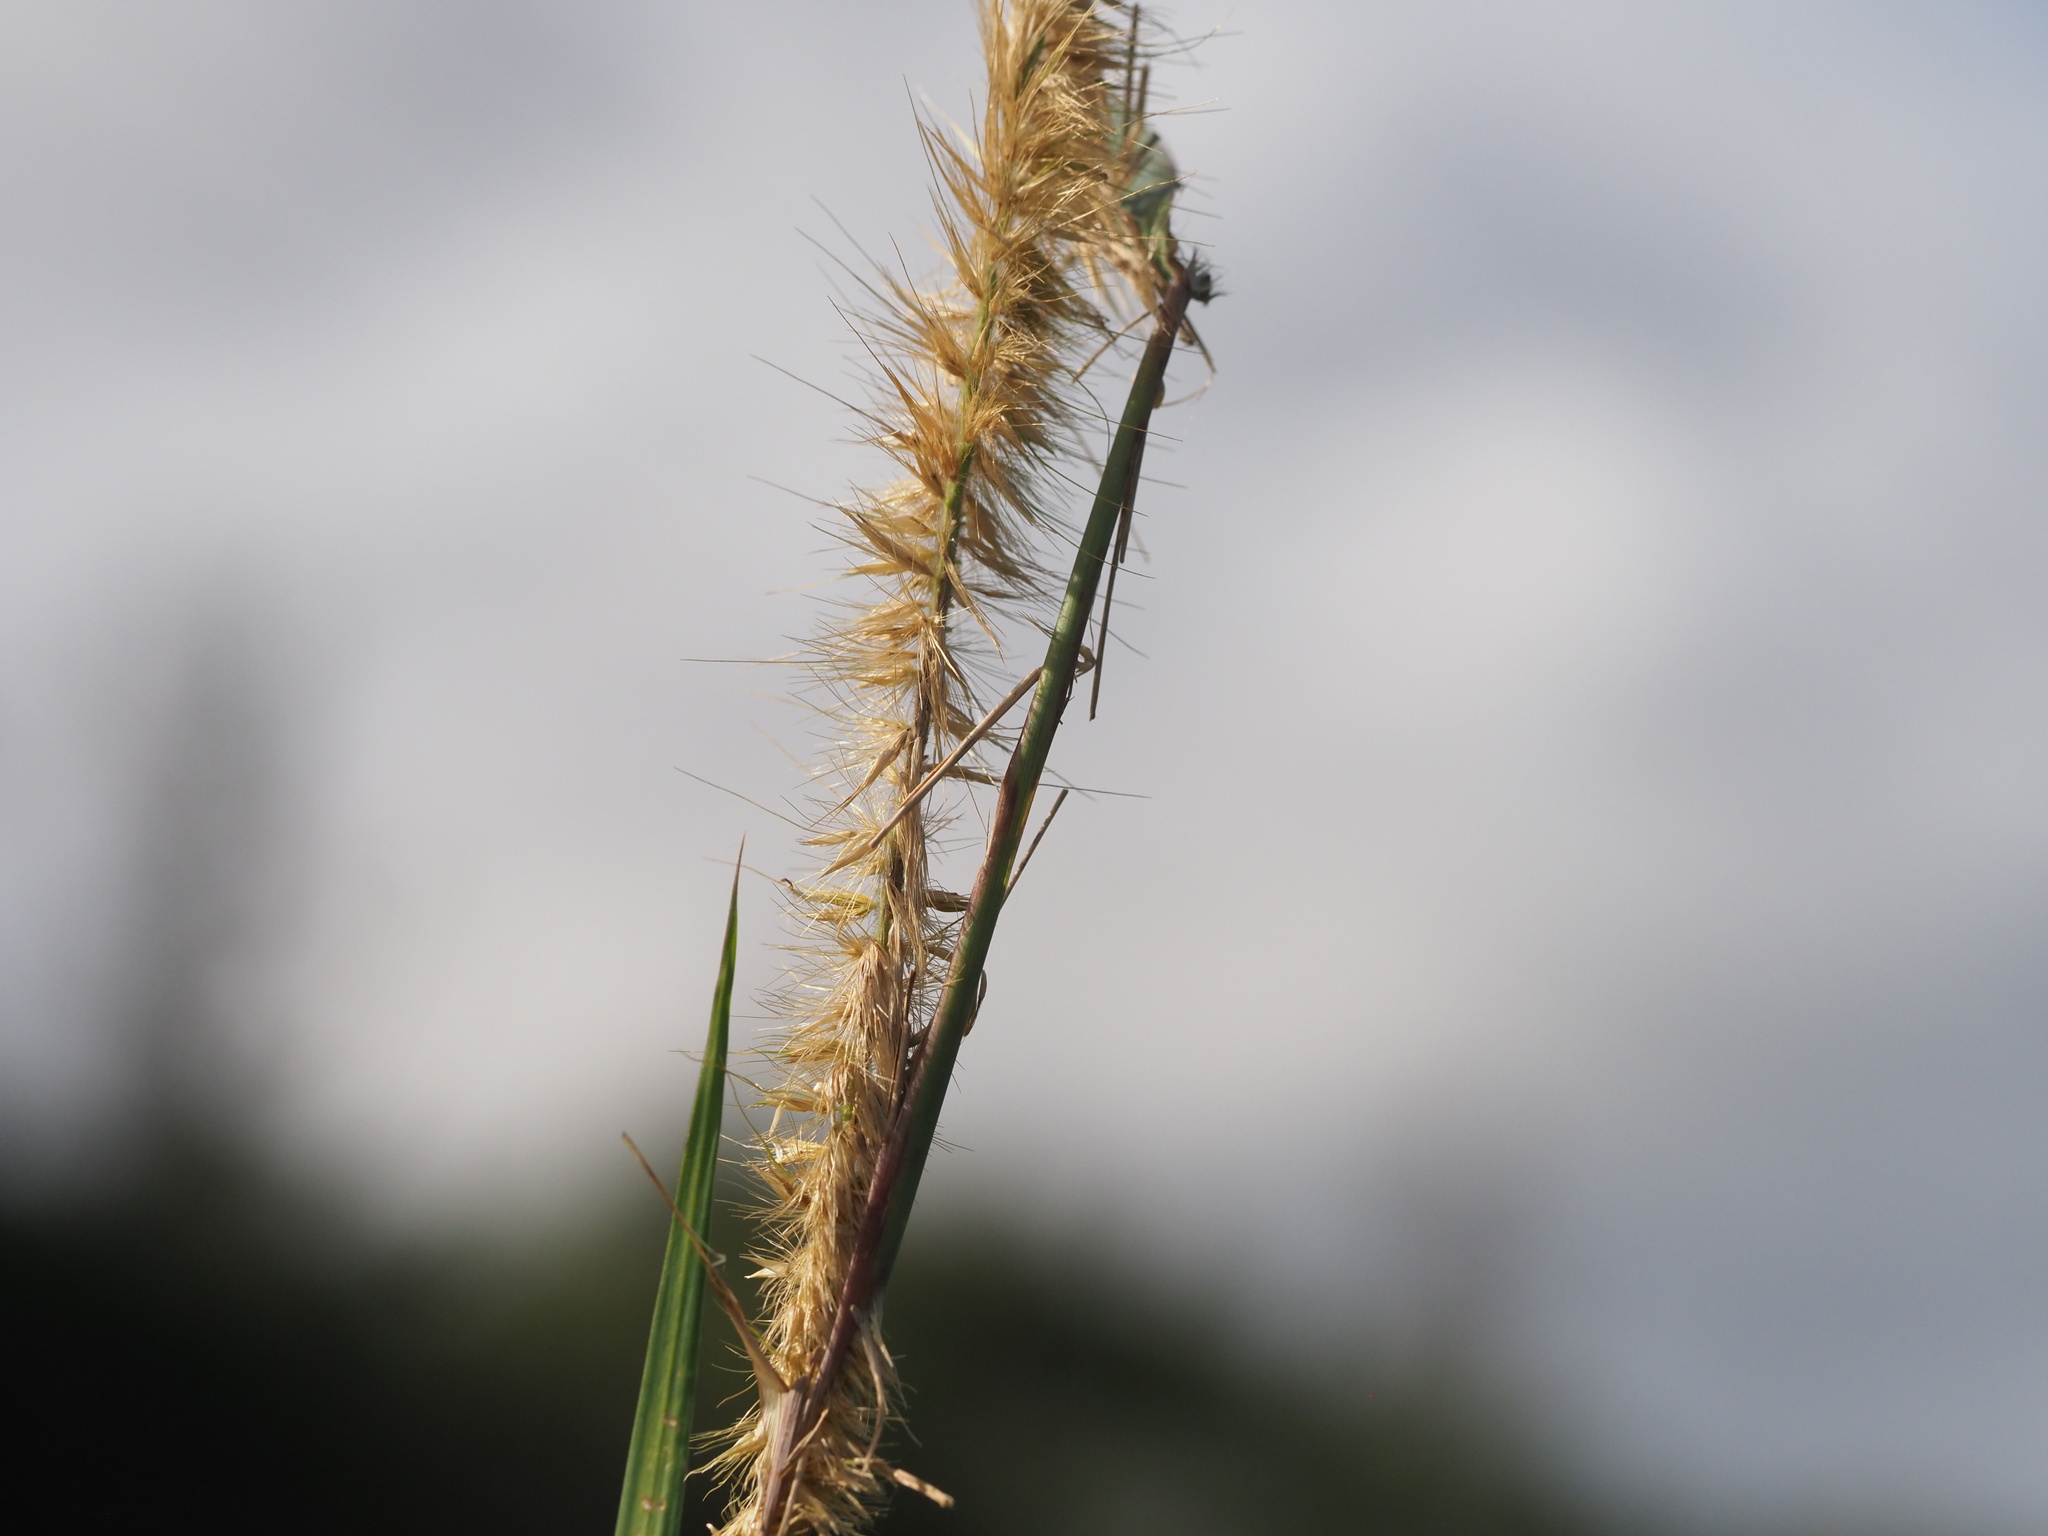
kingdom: Plantae
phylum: Tracheophyta
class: Liliopsida
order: Poales
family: Poaceae
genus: Cenchrus
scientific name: Cenchrus purpureus
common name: Elephant grass
